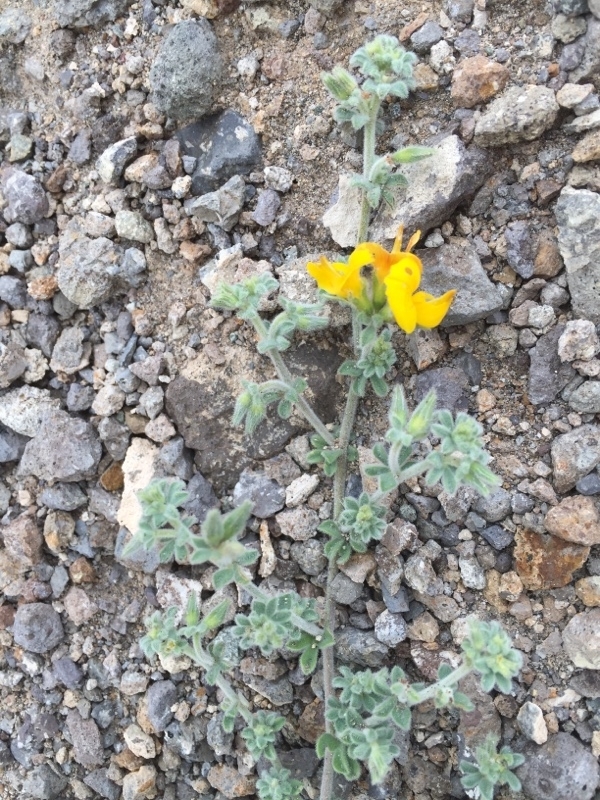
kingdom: Plantae
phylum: Tracheophyta
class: Magnoliopsida
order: Fabales
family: Fabaceae
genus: Lotus
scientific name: Lotus kunkelii
